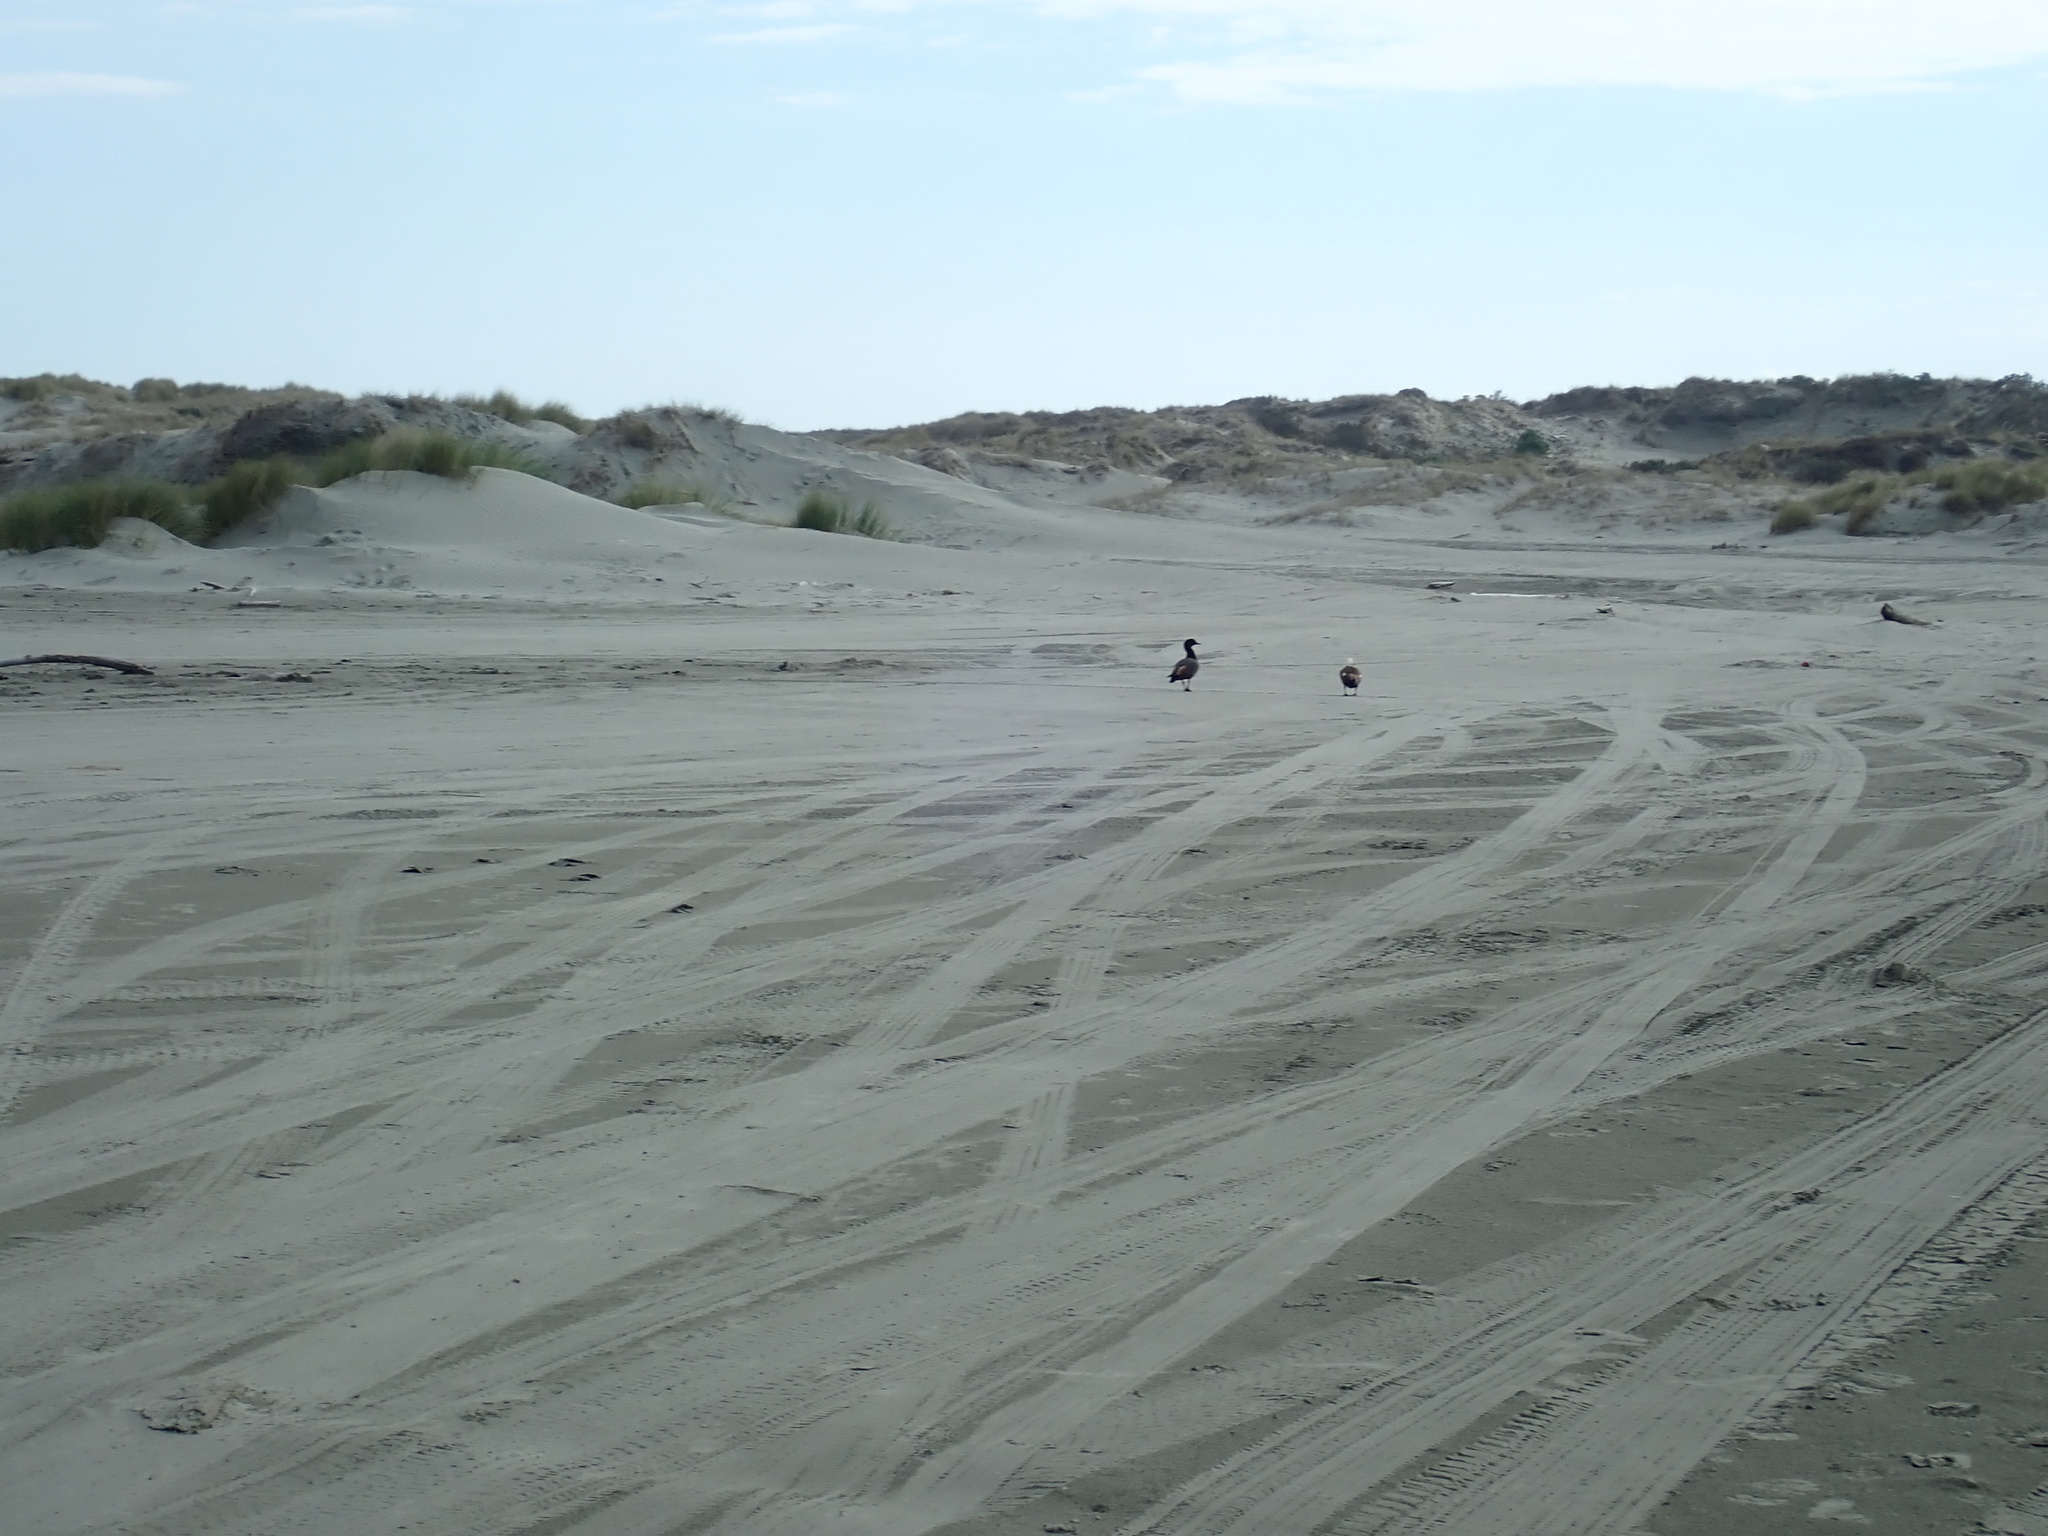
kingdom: Animalia
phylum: Chordata
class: Aves
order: Anseriformes
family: Anatidae
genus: Tadorna
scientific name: Tadorna variegata
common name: Paradise shelduck
